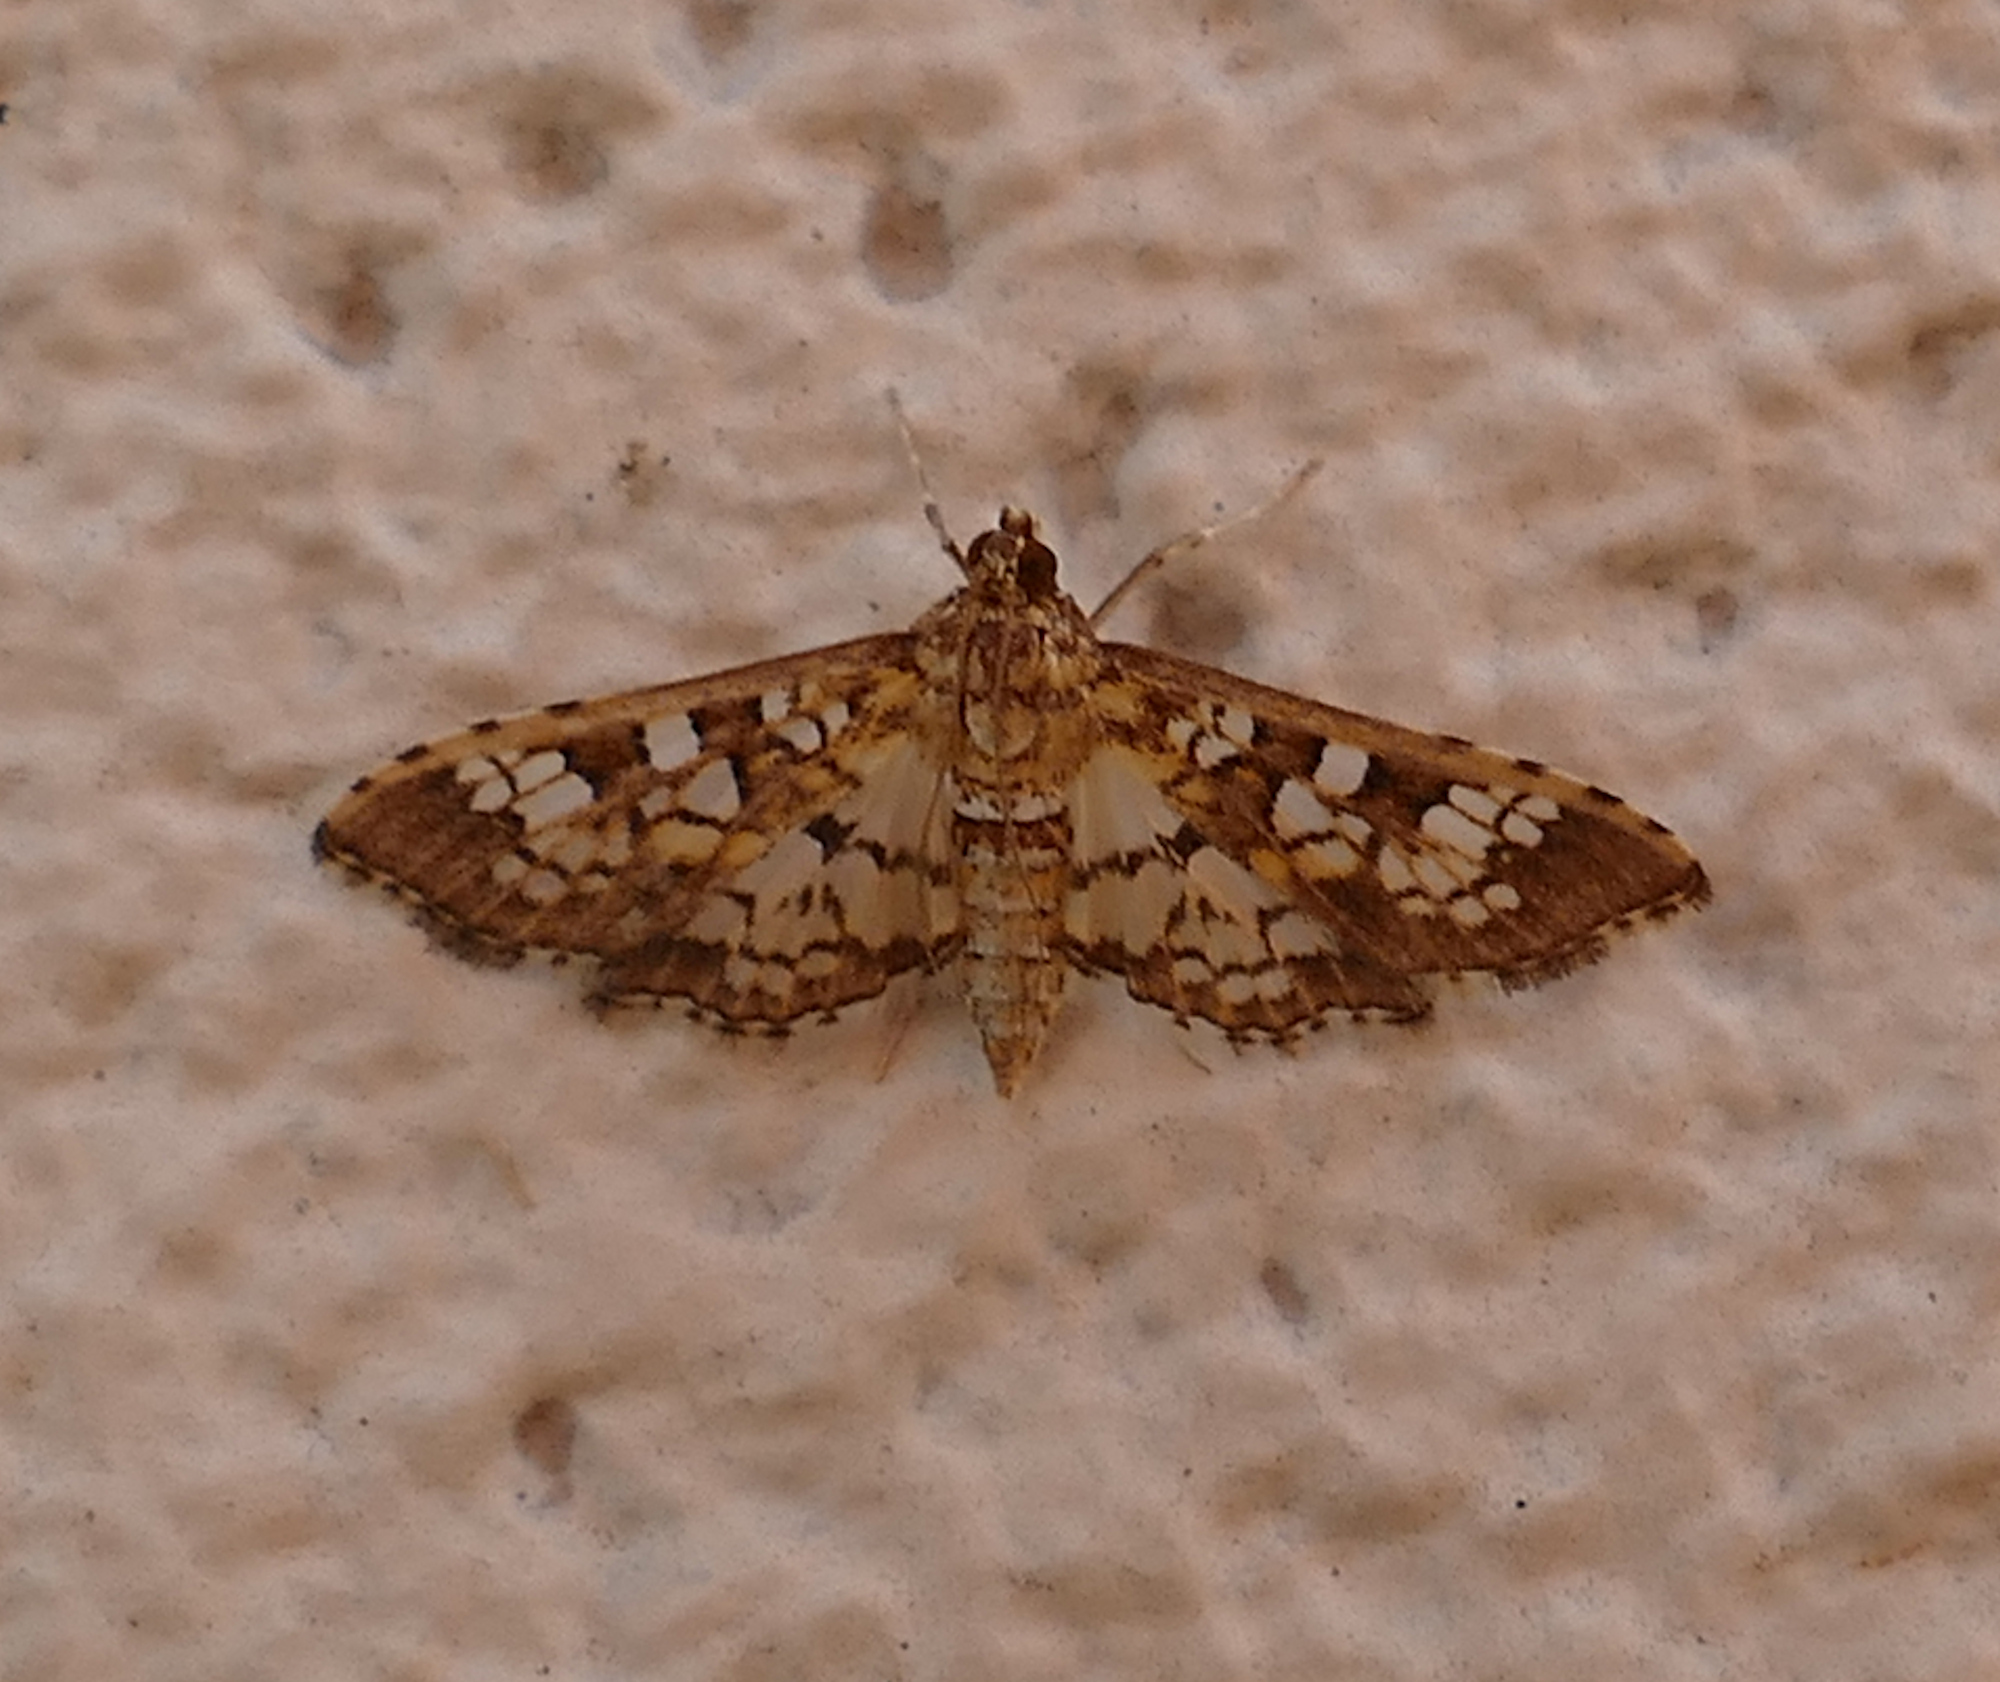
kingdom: Animalia
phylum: Arthropoda
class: Insecta
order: Lepidoptera
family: Crambidae
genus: Samea
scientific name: Samea ecclesialis
